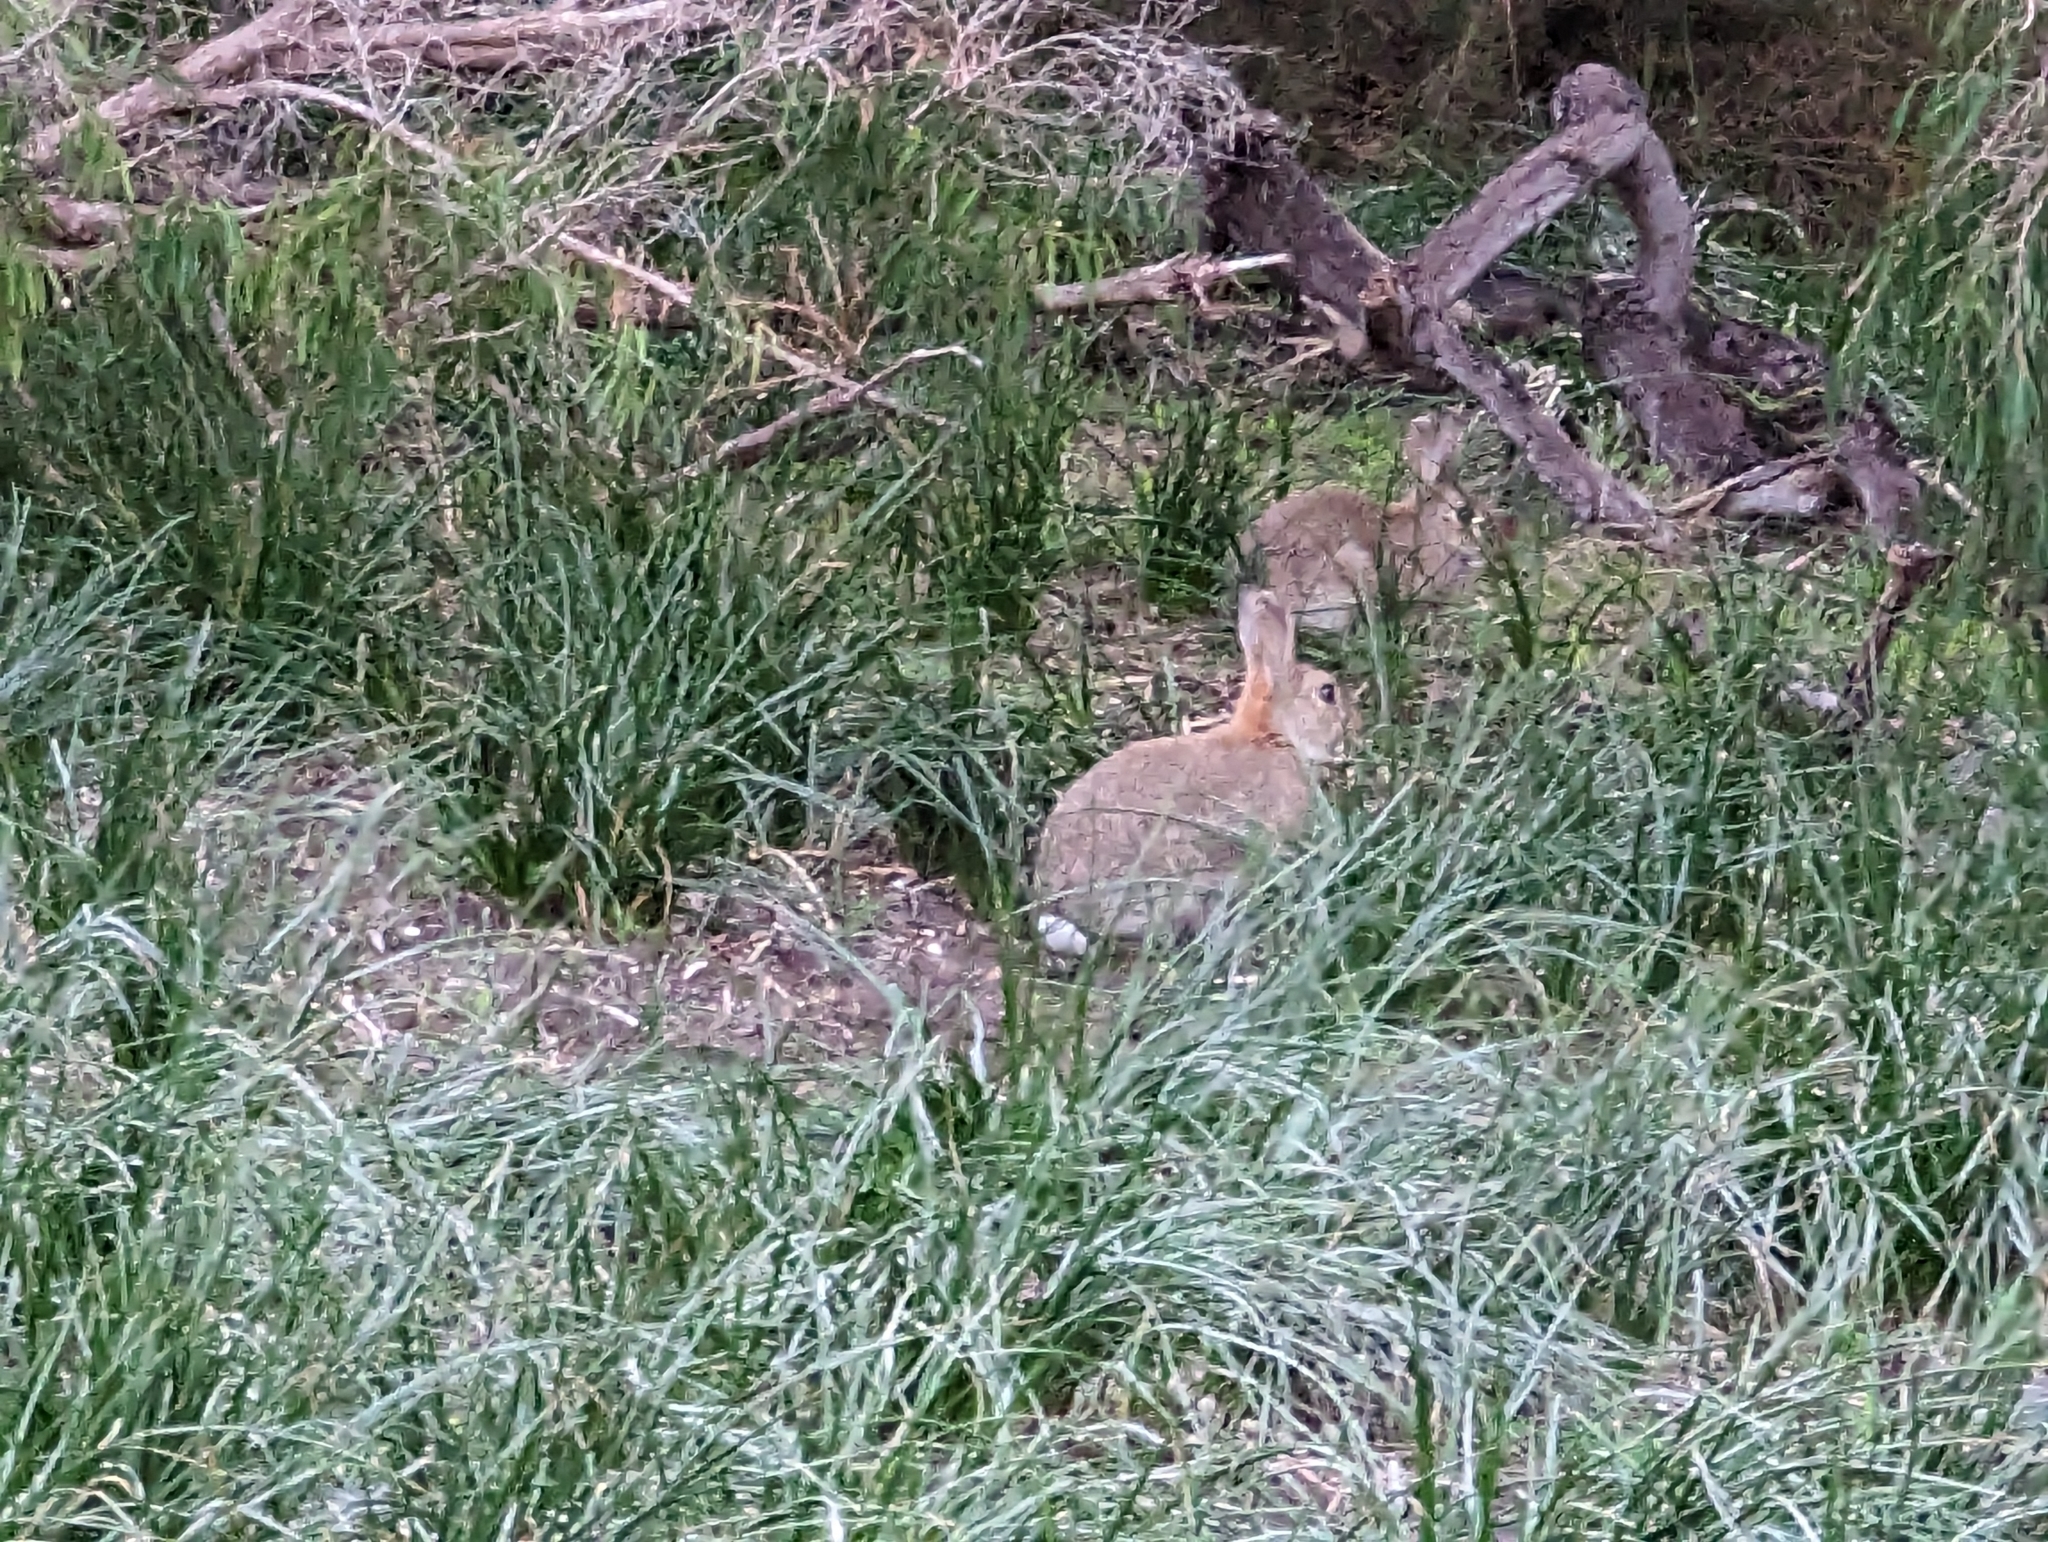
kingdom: Animalia
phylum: Chordata
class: Mammalia
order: Lagomorpha
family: Leporidae
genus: Oryctolagus
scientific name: Oryctolagus cuniculus
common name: European rabbit
